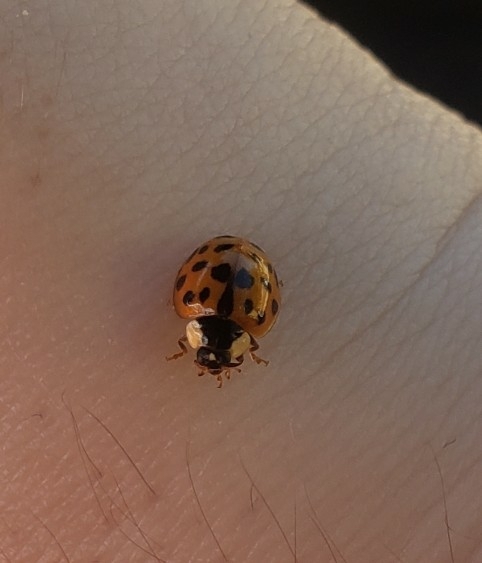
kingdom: Animalia
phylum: Arthropoda
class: Insecta
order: Coleoptera
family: Coccinellidae
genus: Harmonia
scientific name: Harmonia axyridis
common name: Harlequin ladybird
